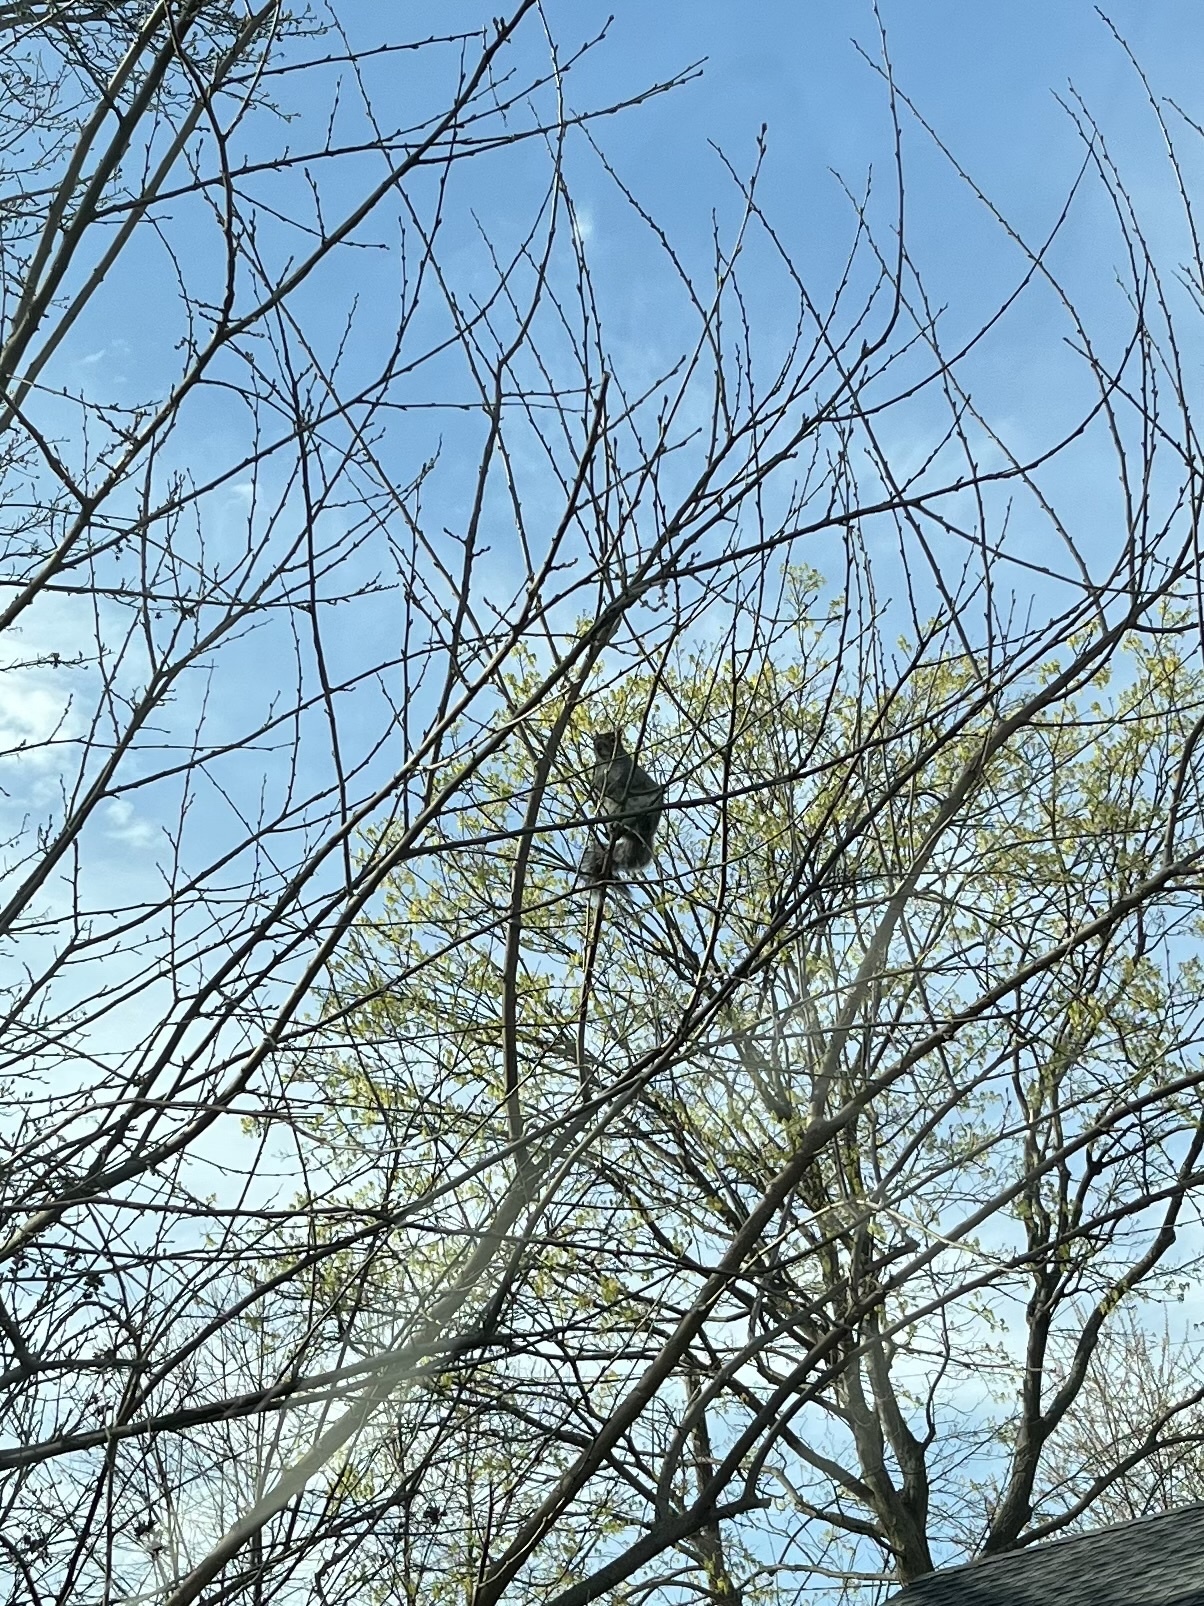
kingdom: Animalia
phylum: Chordata
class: Mammalia
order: Rodentia
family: Sciuridae
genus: Sciurus
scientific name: Sciurus carolinensis
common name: Eastern gray squirrel
